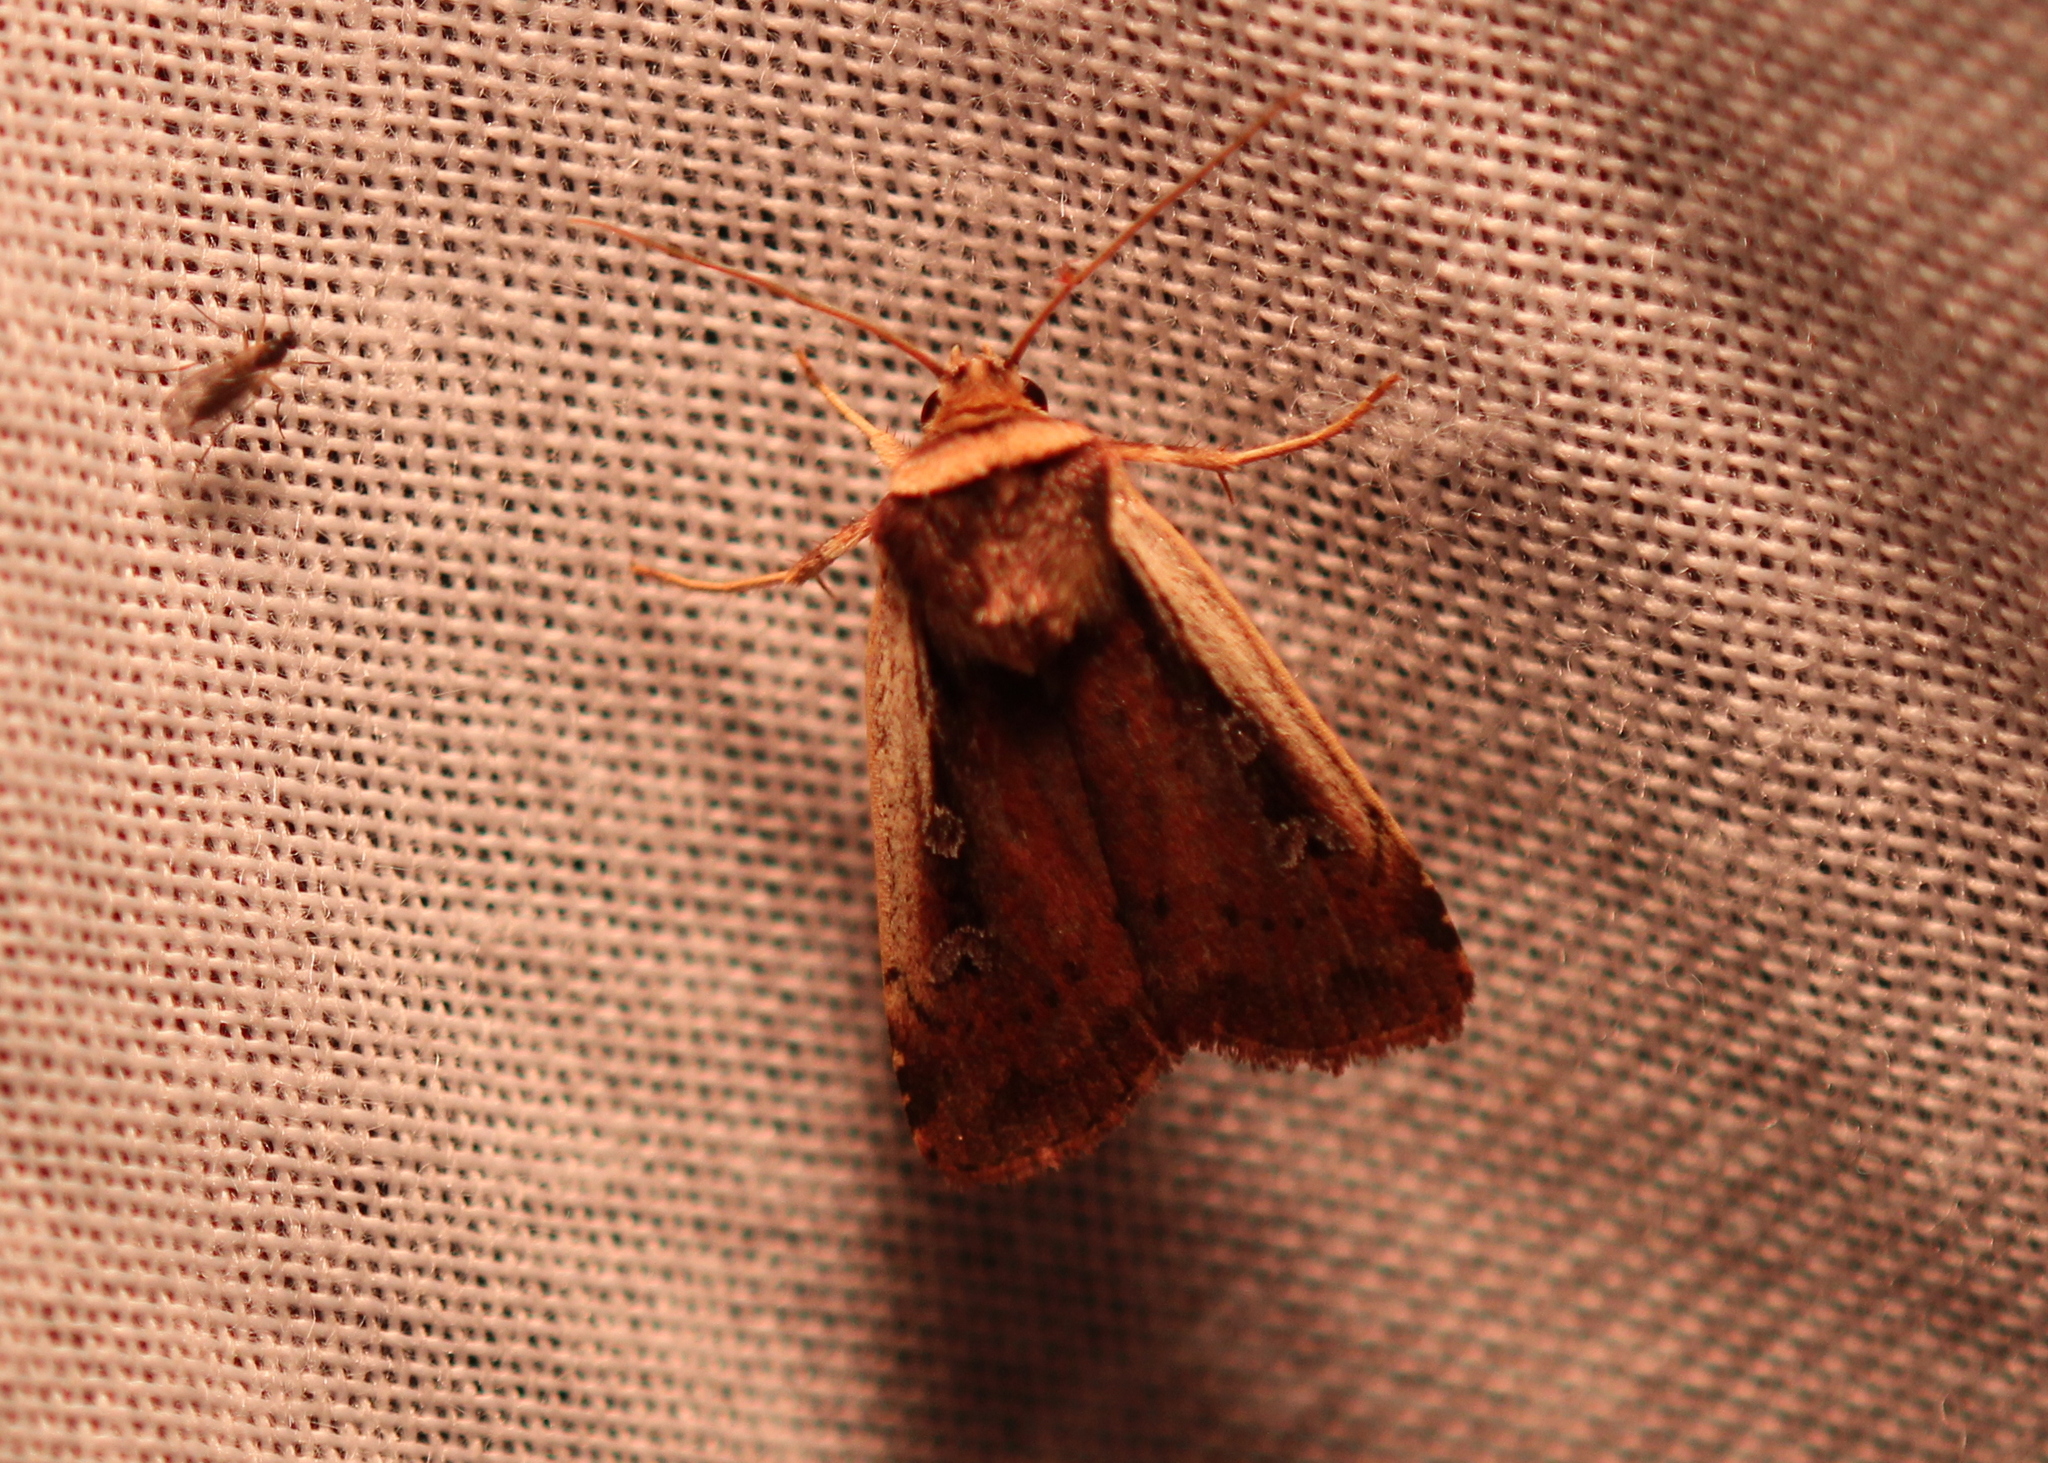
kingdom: Animalia
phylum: Arthropoda
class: Insecta
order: Lepidoptera
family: Noctuidae
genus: Ochropleura
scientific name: Ochropleura implecta
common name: Flame-shouldered dart
